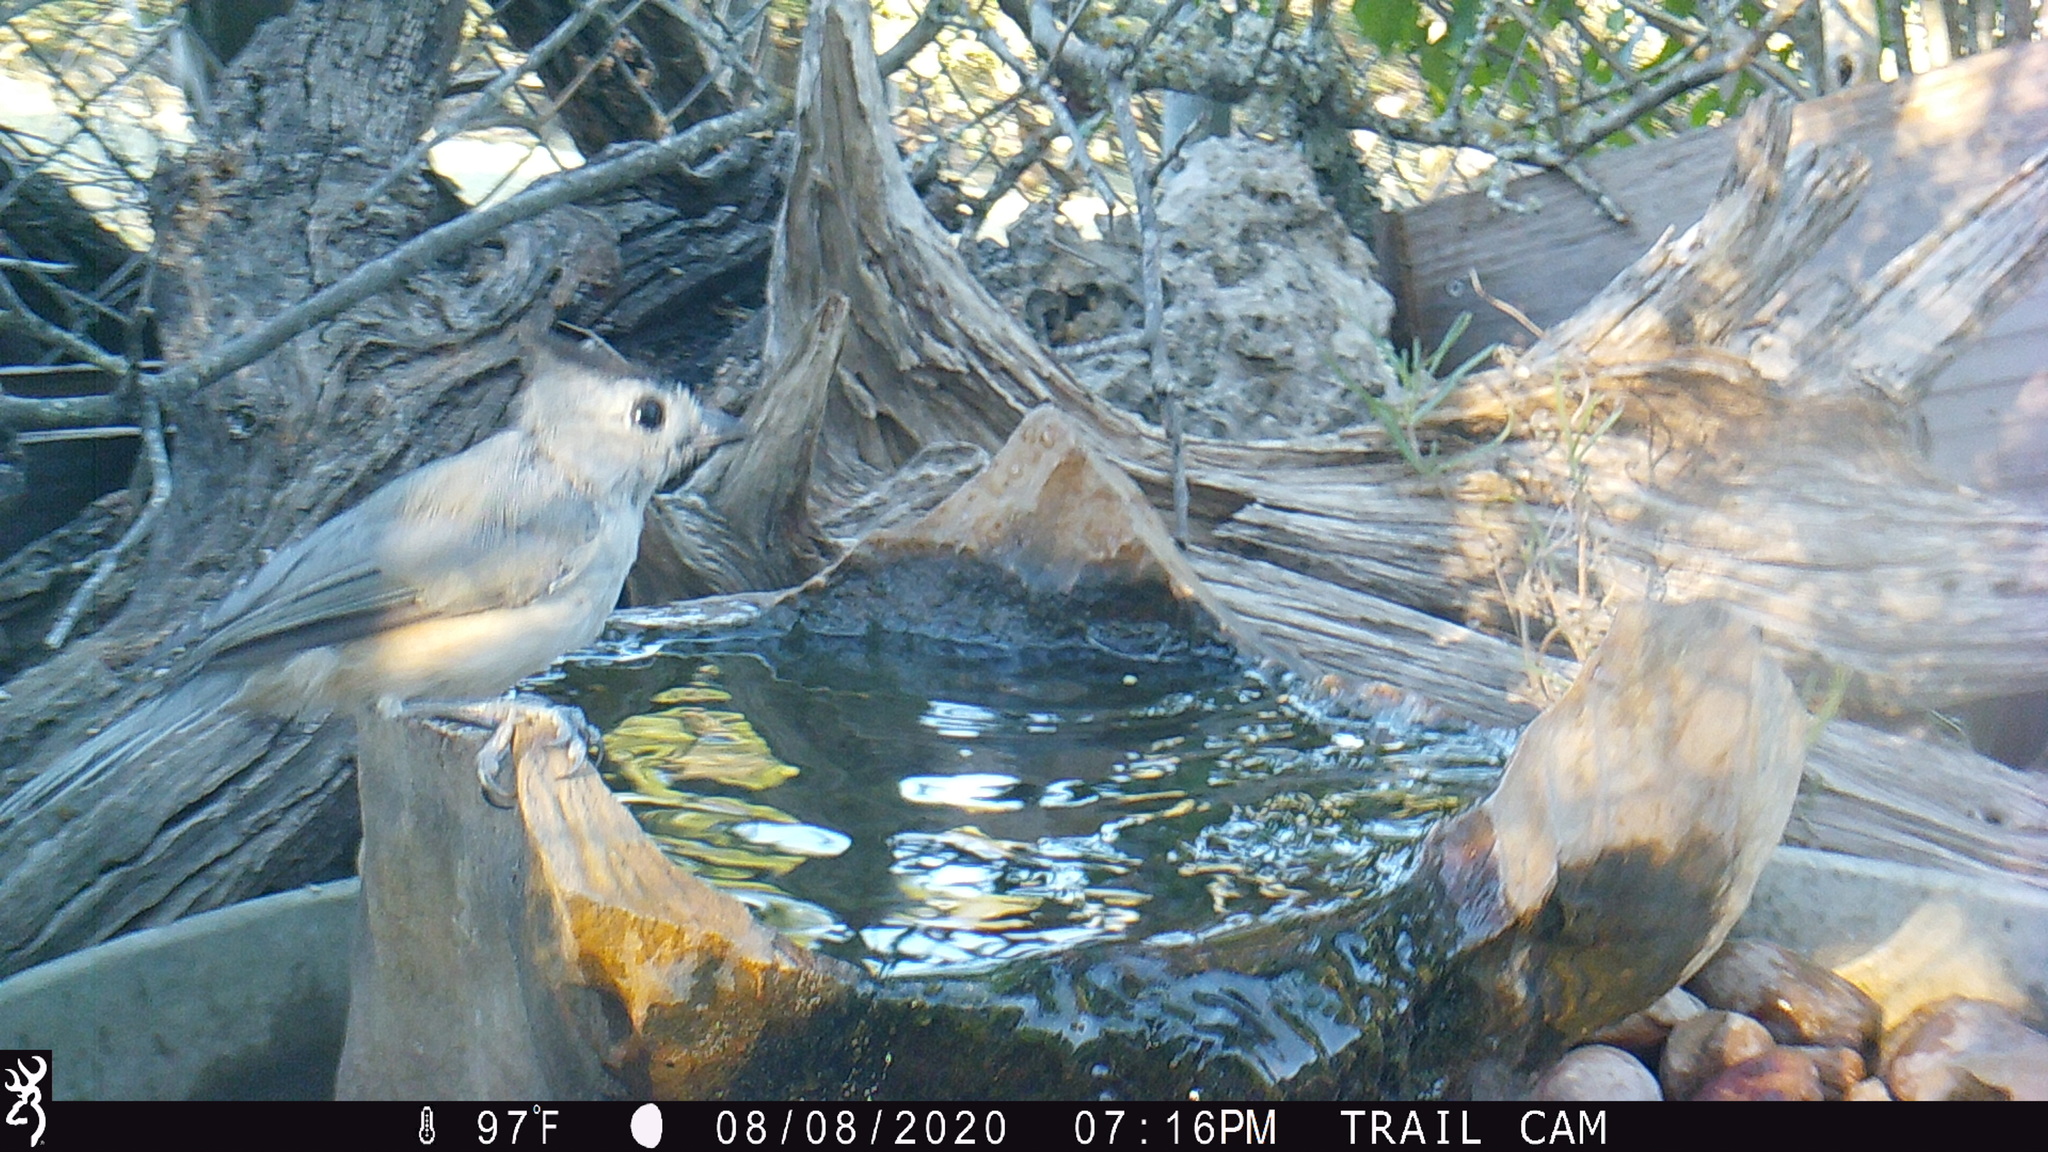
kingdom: Animalia
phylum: Chordata
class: Aves
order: Passeriformes
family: Paridae
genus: Baeolophus
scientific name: Baeolophus atricristatus
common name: Black-crested titmouse
